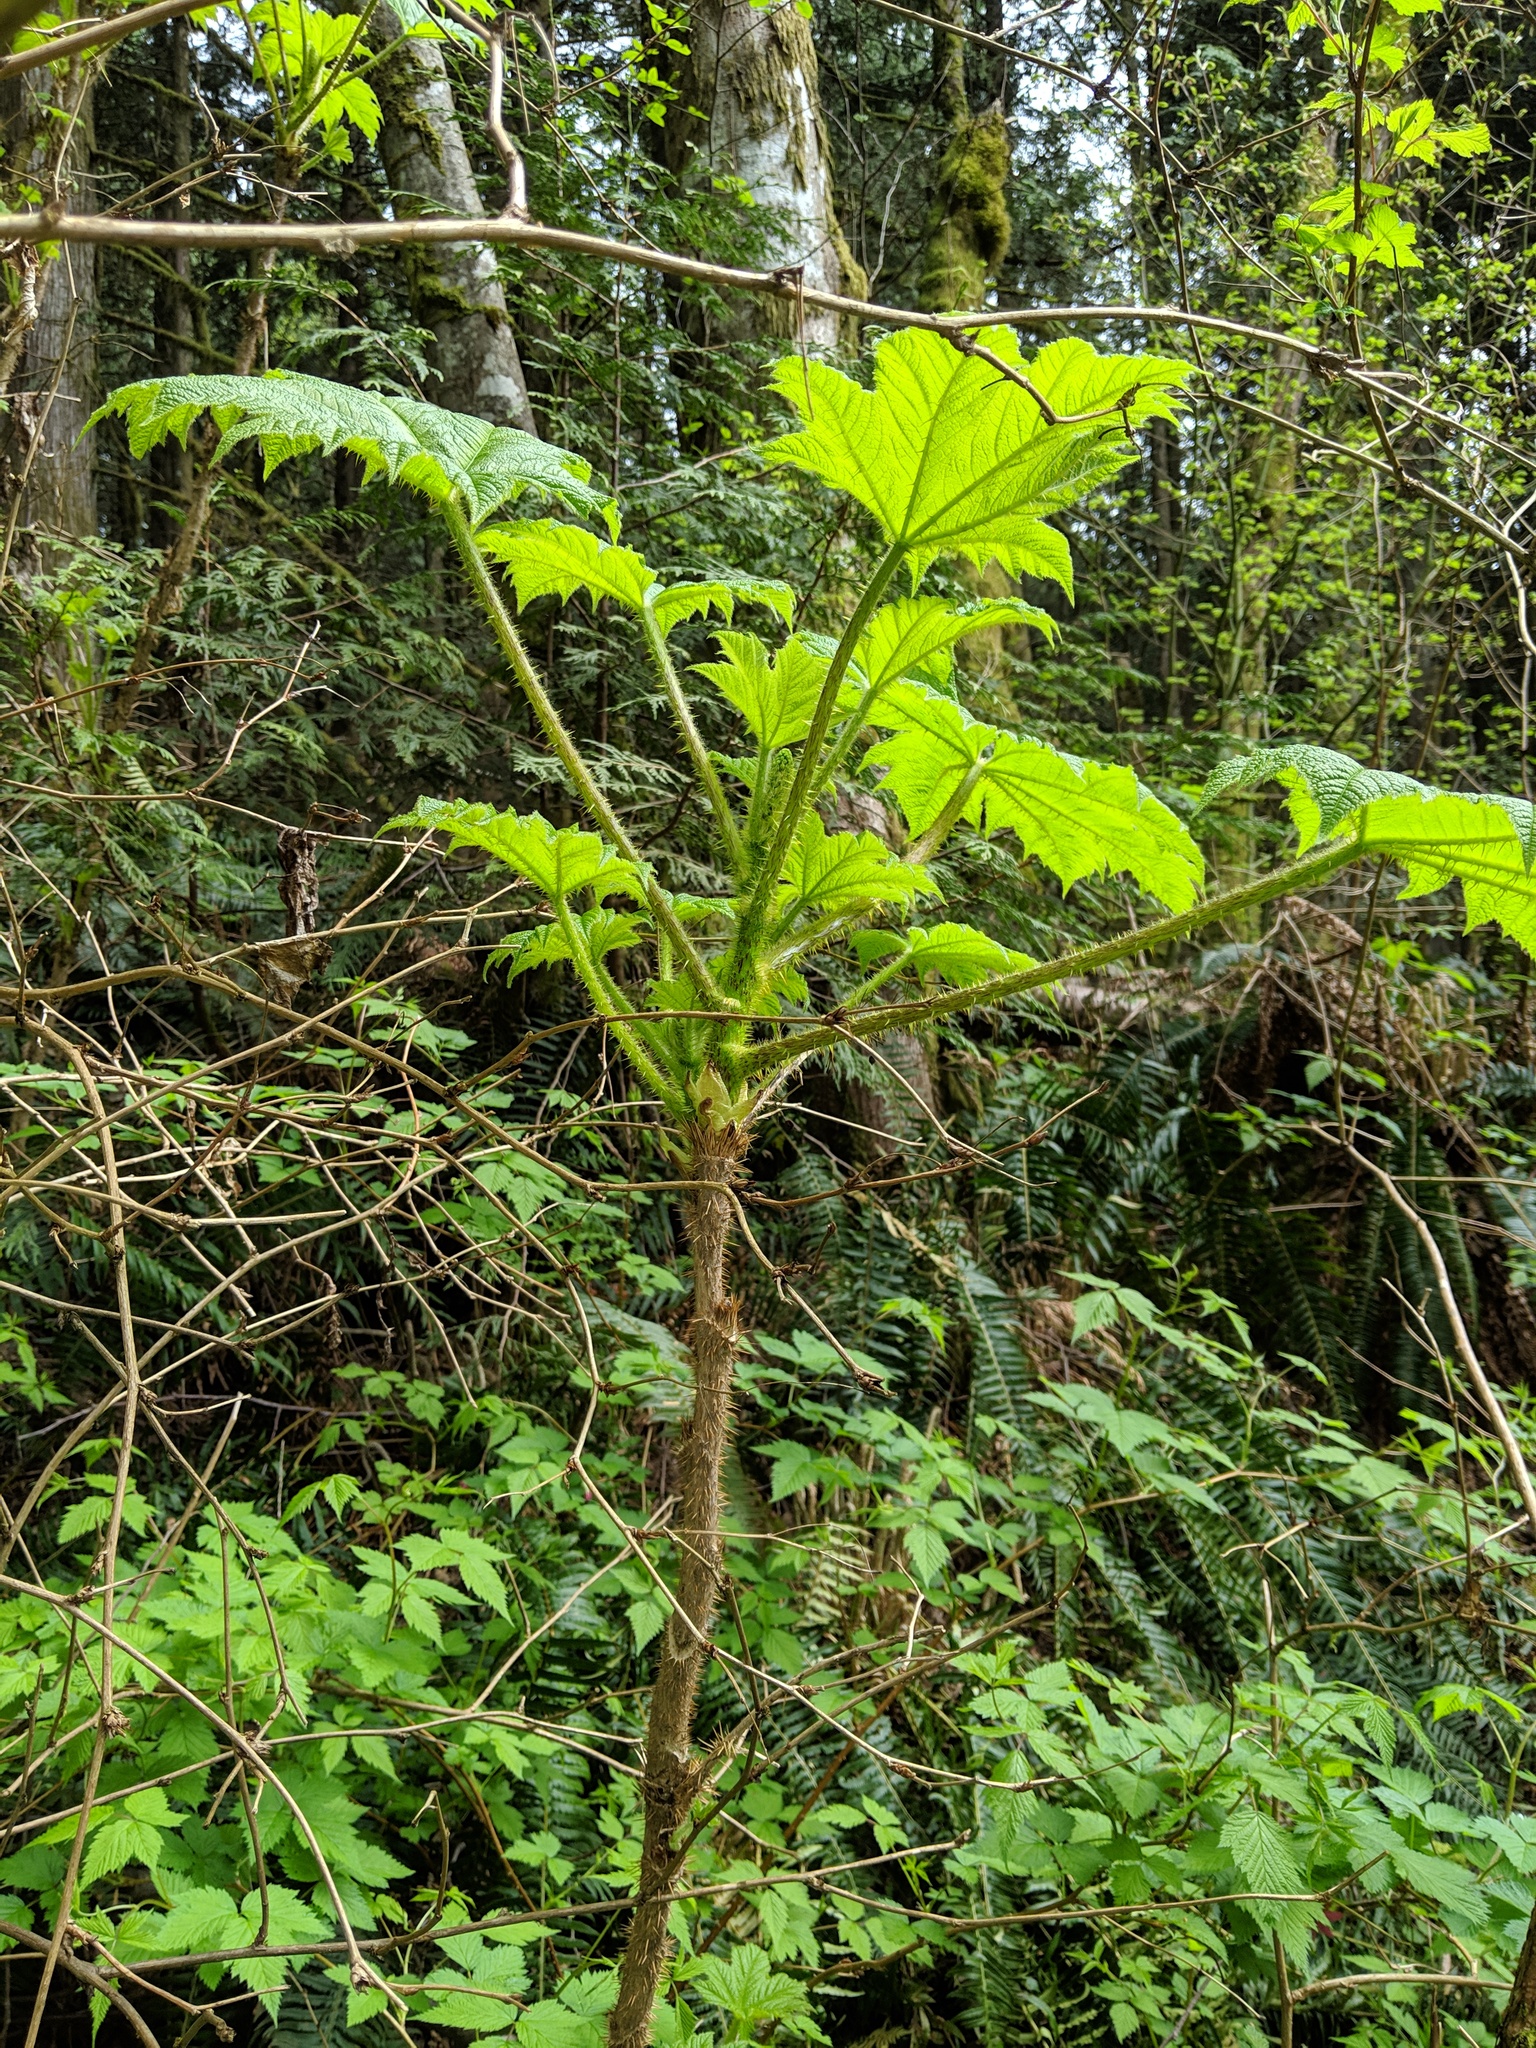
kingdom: Plantae
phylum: Tracheophyta
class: Magnoliopsida
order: Apiales
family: Araliaceae
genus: Oplopanax
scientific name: Oplopanax horridus
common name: Devil's walking-stick
